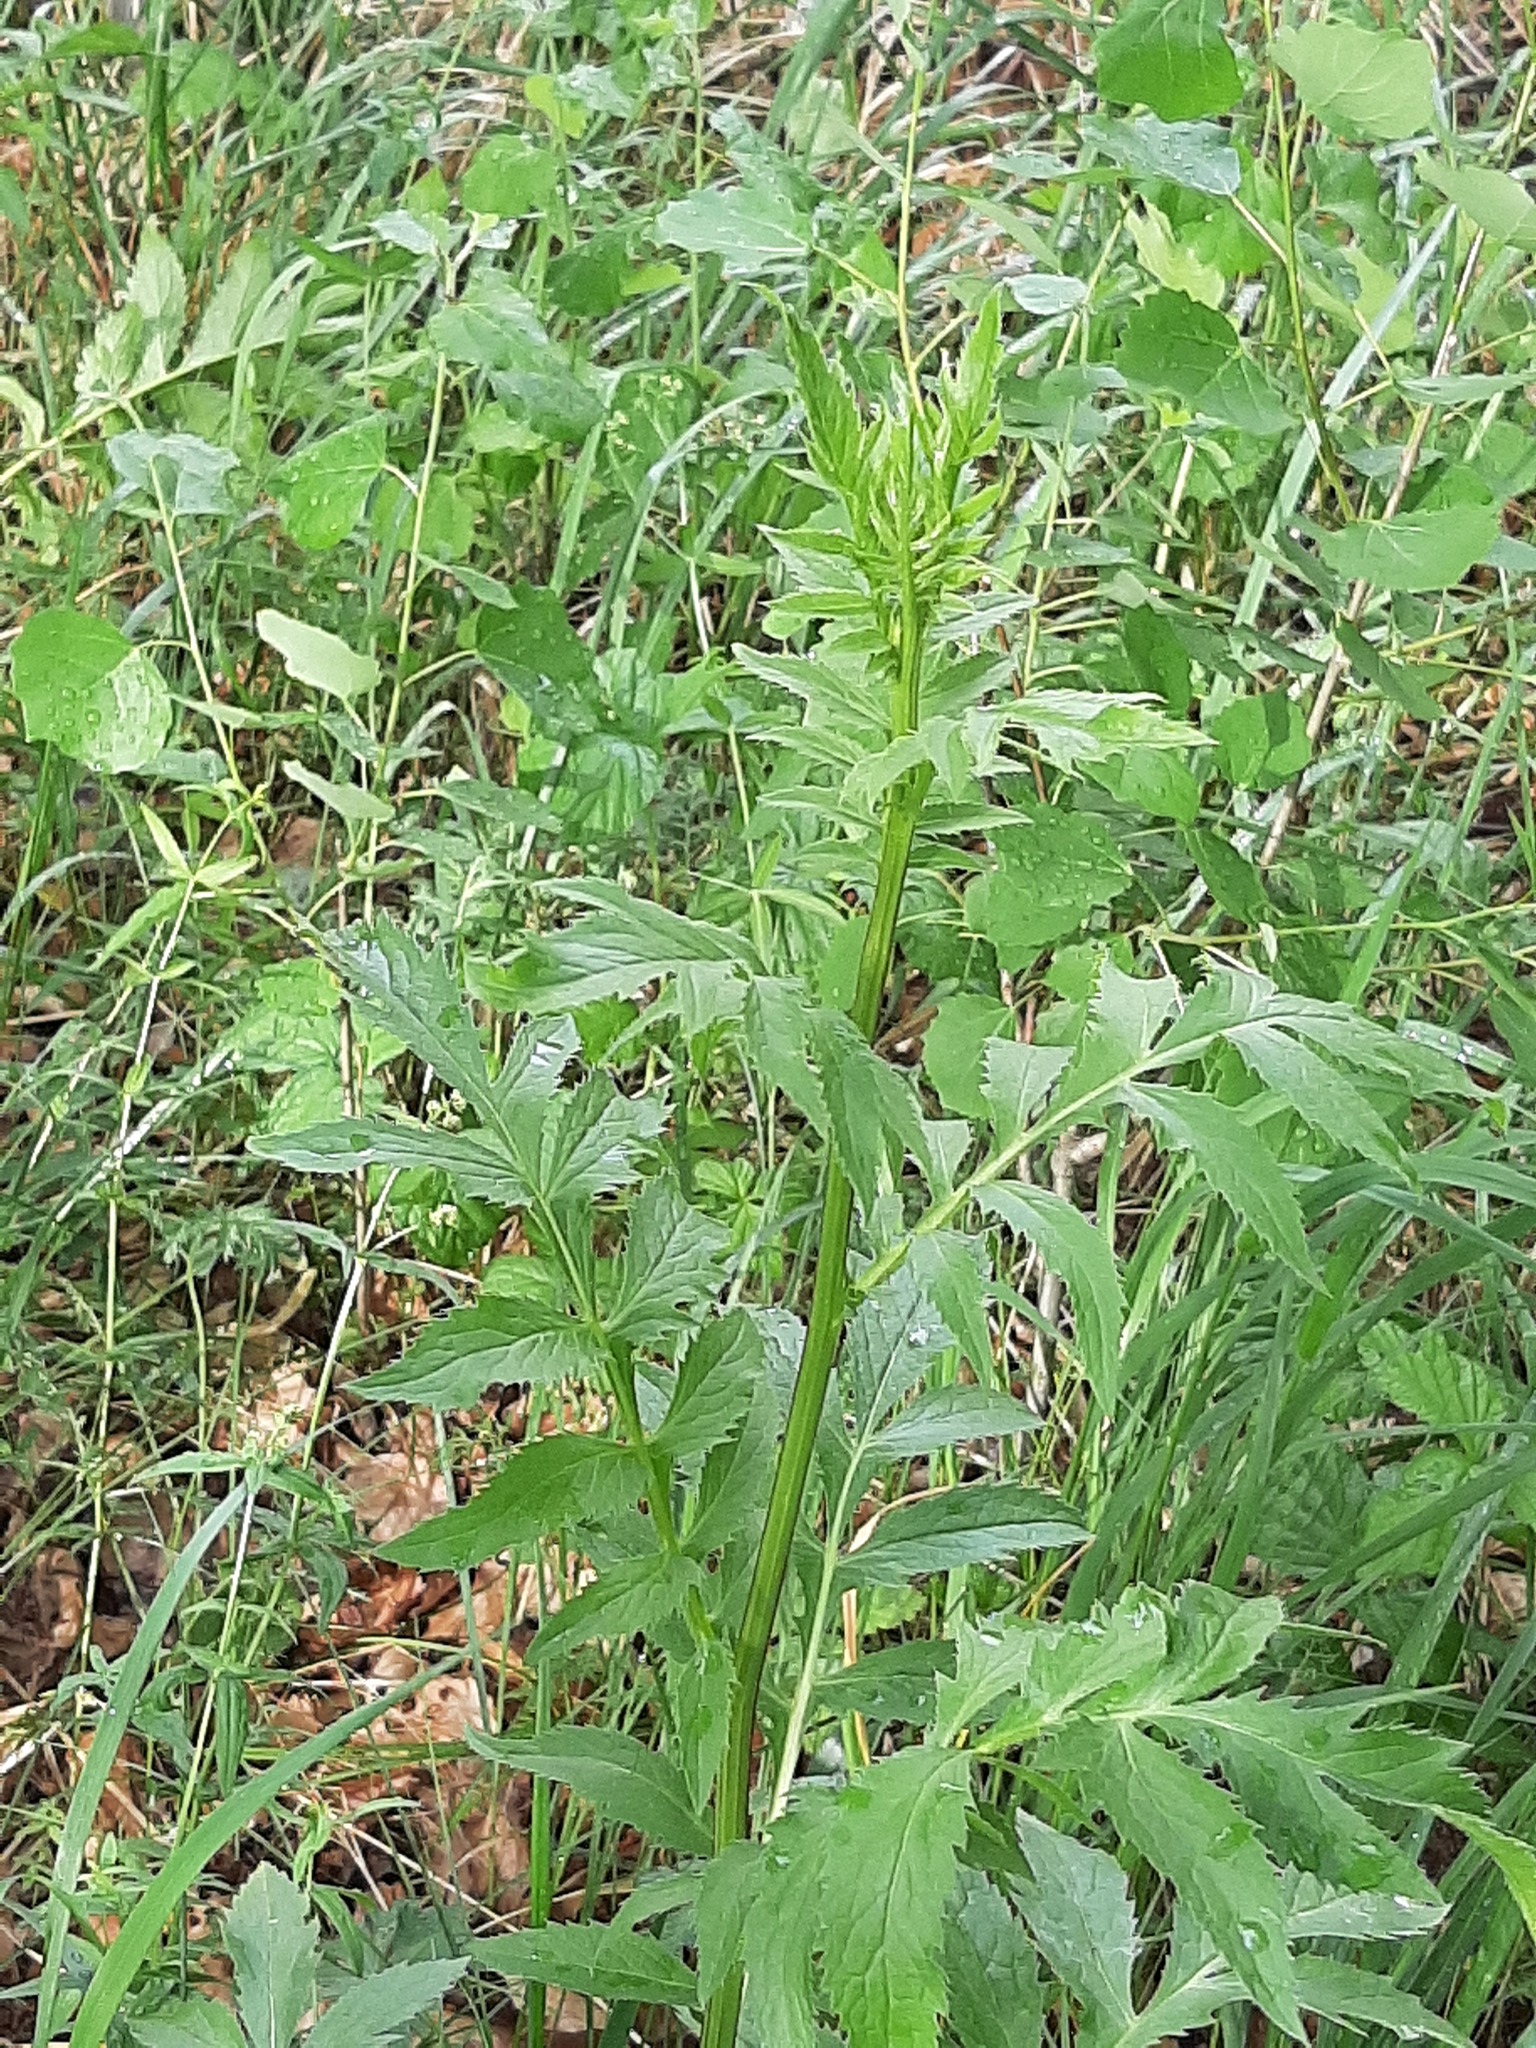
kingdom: Plantae
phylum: Tracheophyta
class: Magnoliopsida
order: Asterales
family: Asteraceae
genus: Serratula
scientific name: Serratula coronata
